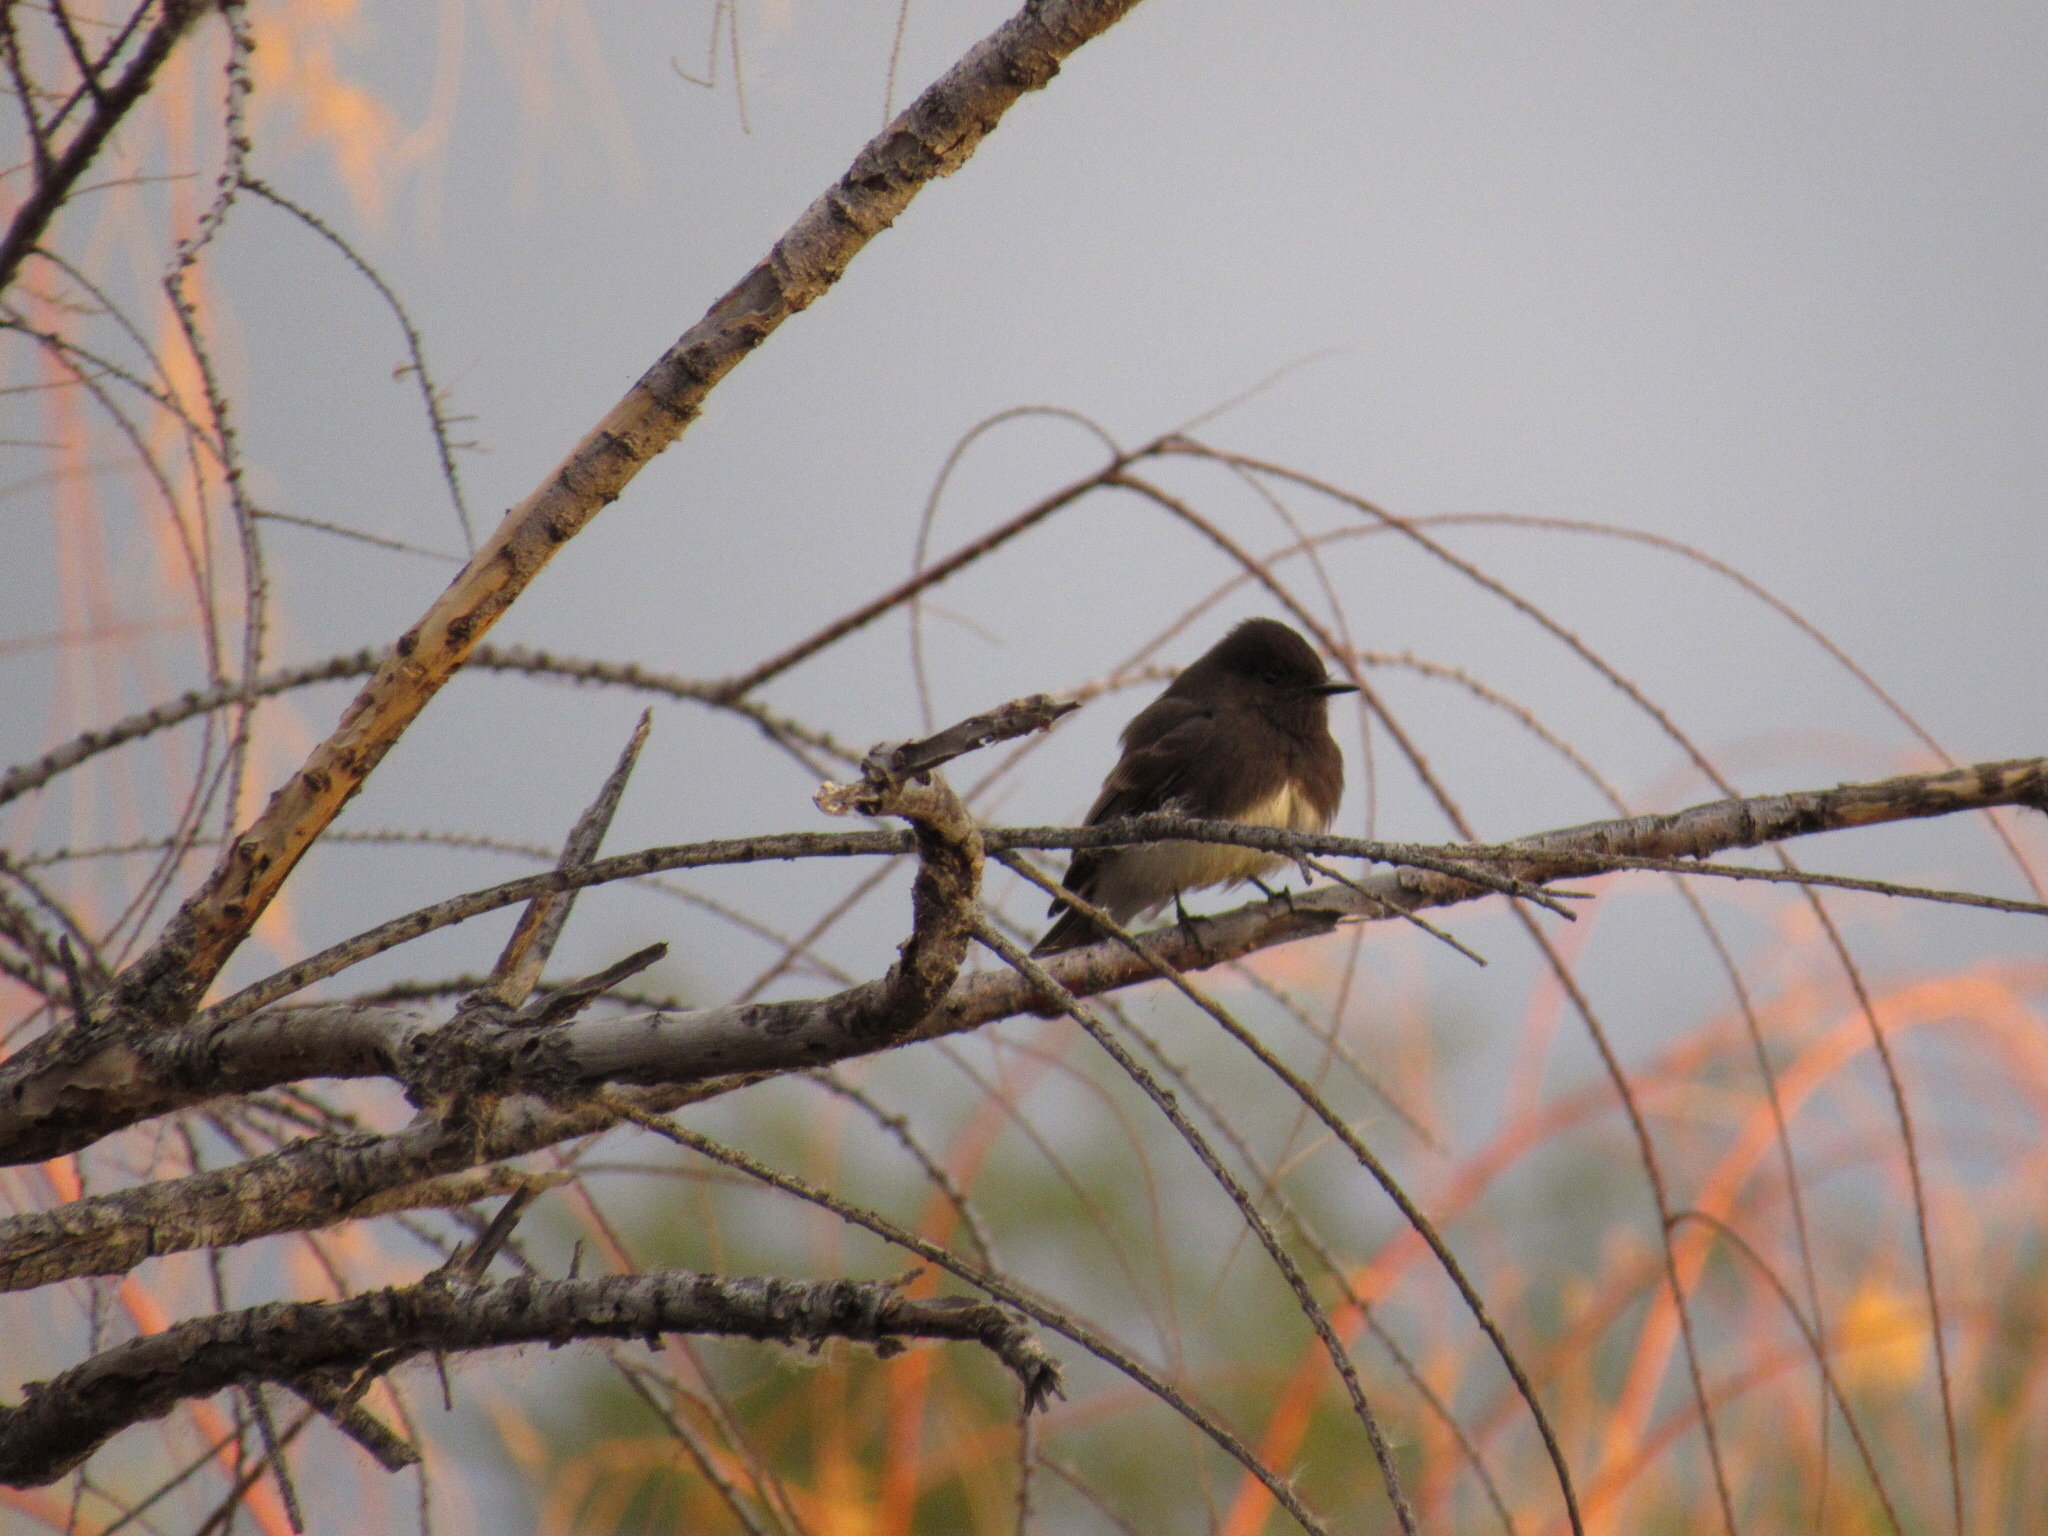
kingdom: Animalia
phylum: Chordata
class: Aves
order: Passeriformes
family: Tyrannidae
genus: Sayornis
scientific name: Sayornis nigricans
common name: Black phoebe
